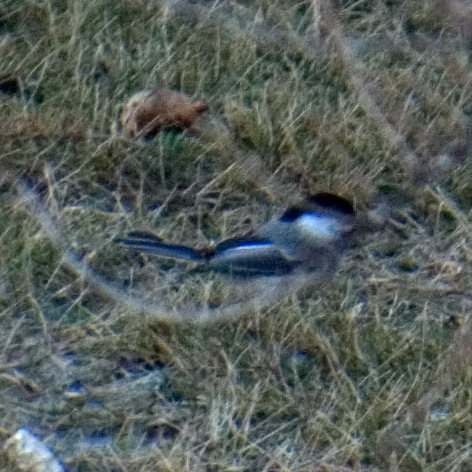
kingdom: Animalia
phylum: Chordata
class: Aves
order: Passeriformes
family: Paridae
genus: Poecile
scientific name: Poecile atricapillus
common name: Black-capped chickadee
